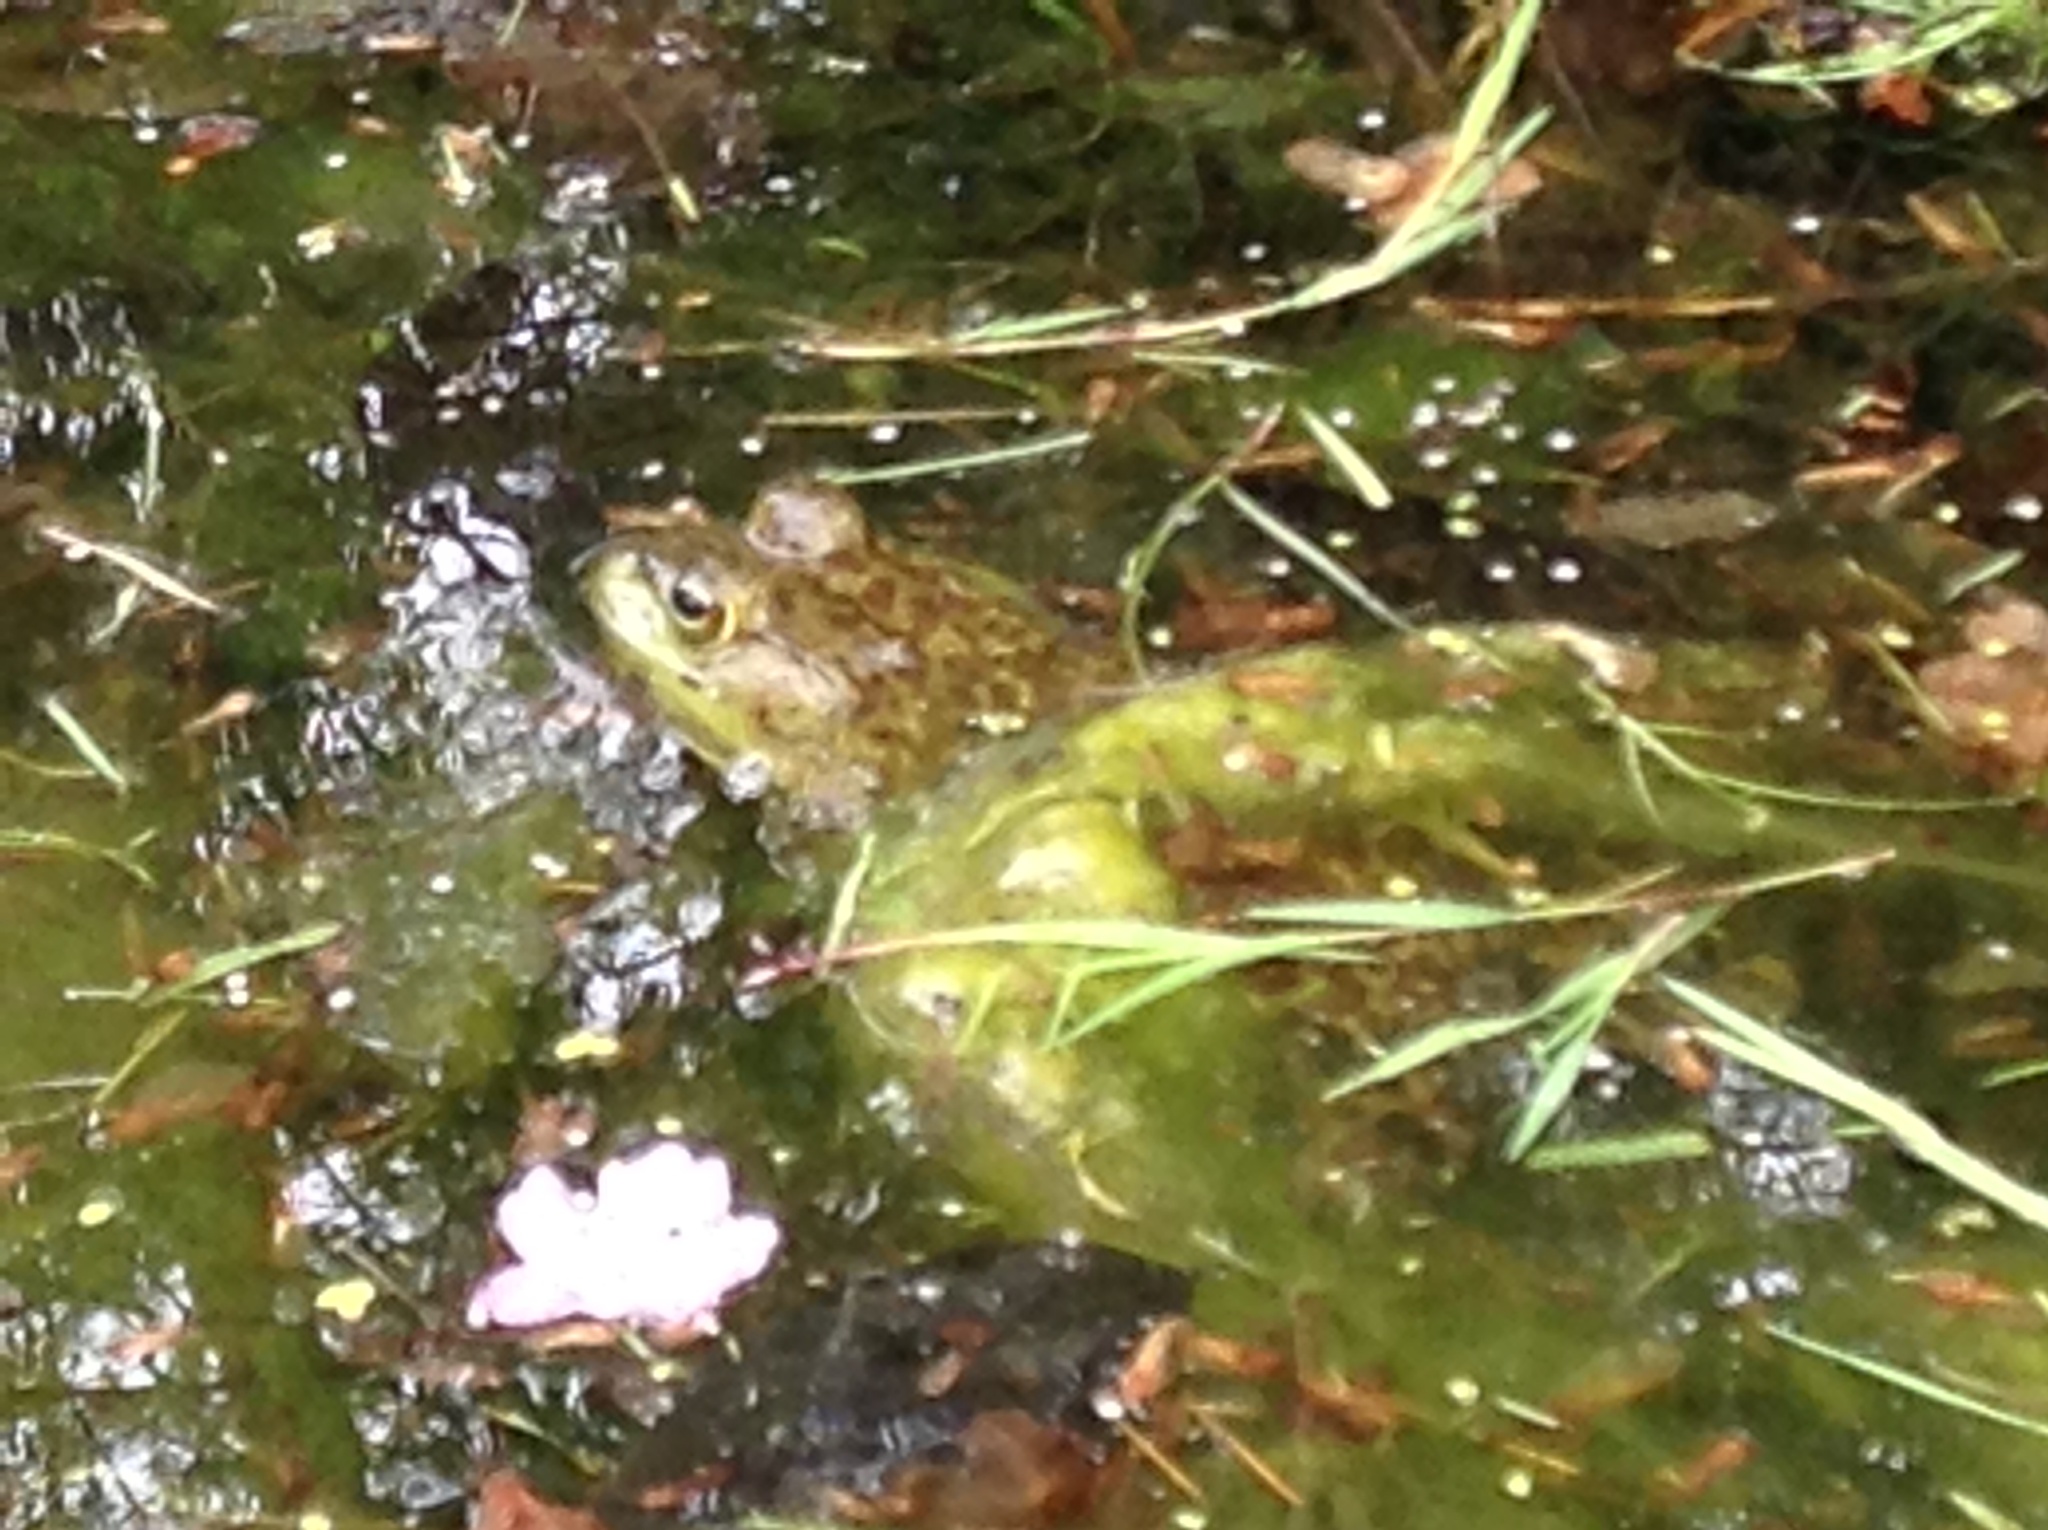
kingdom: Animalia
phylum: Chordata
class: Amphibia
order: Anura
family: Ranidae
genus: Lithobates
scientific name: Lithobates catesbeianus
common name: American bullfrog
